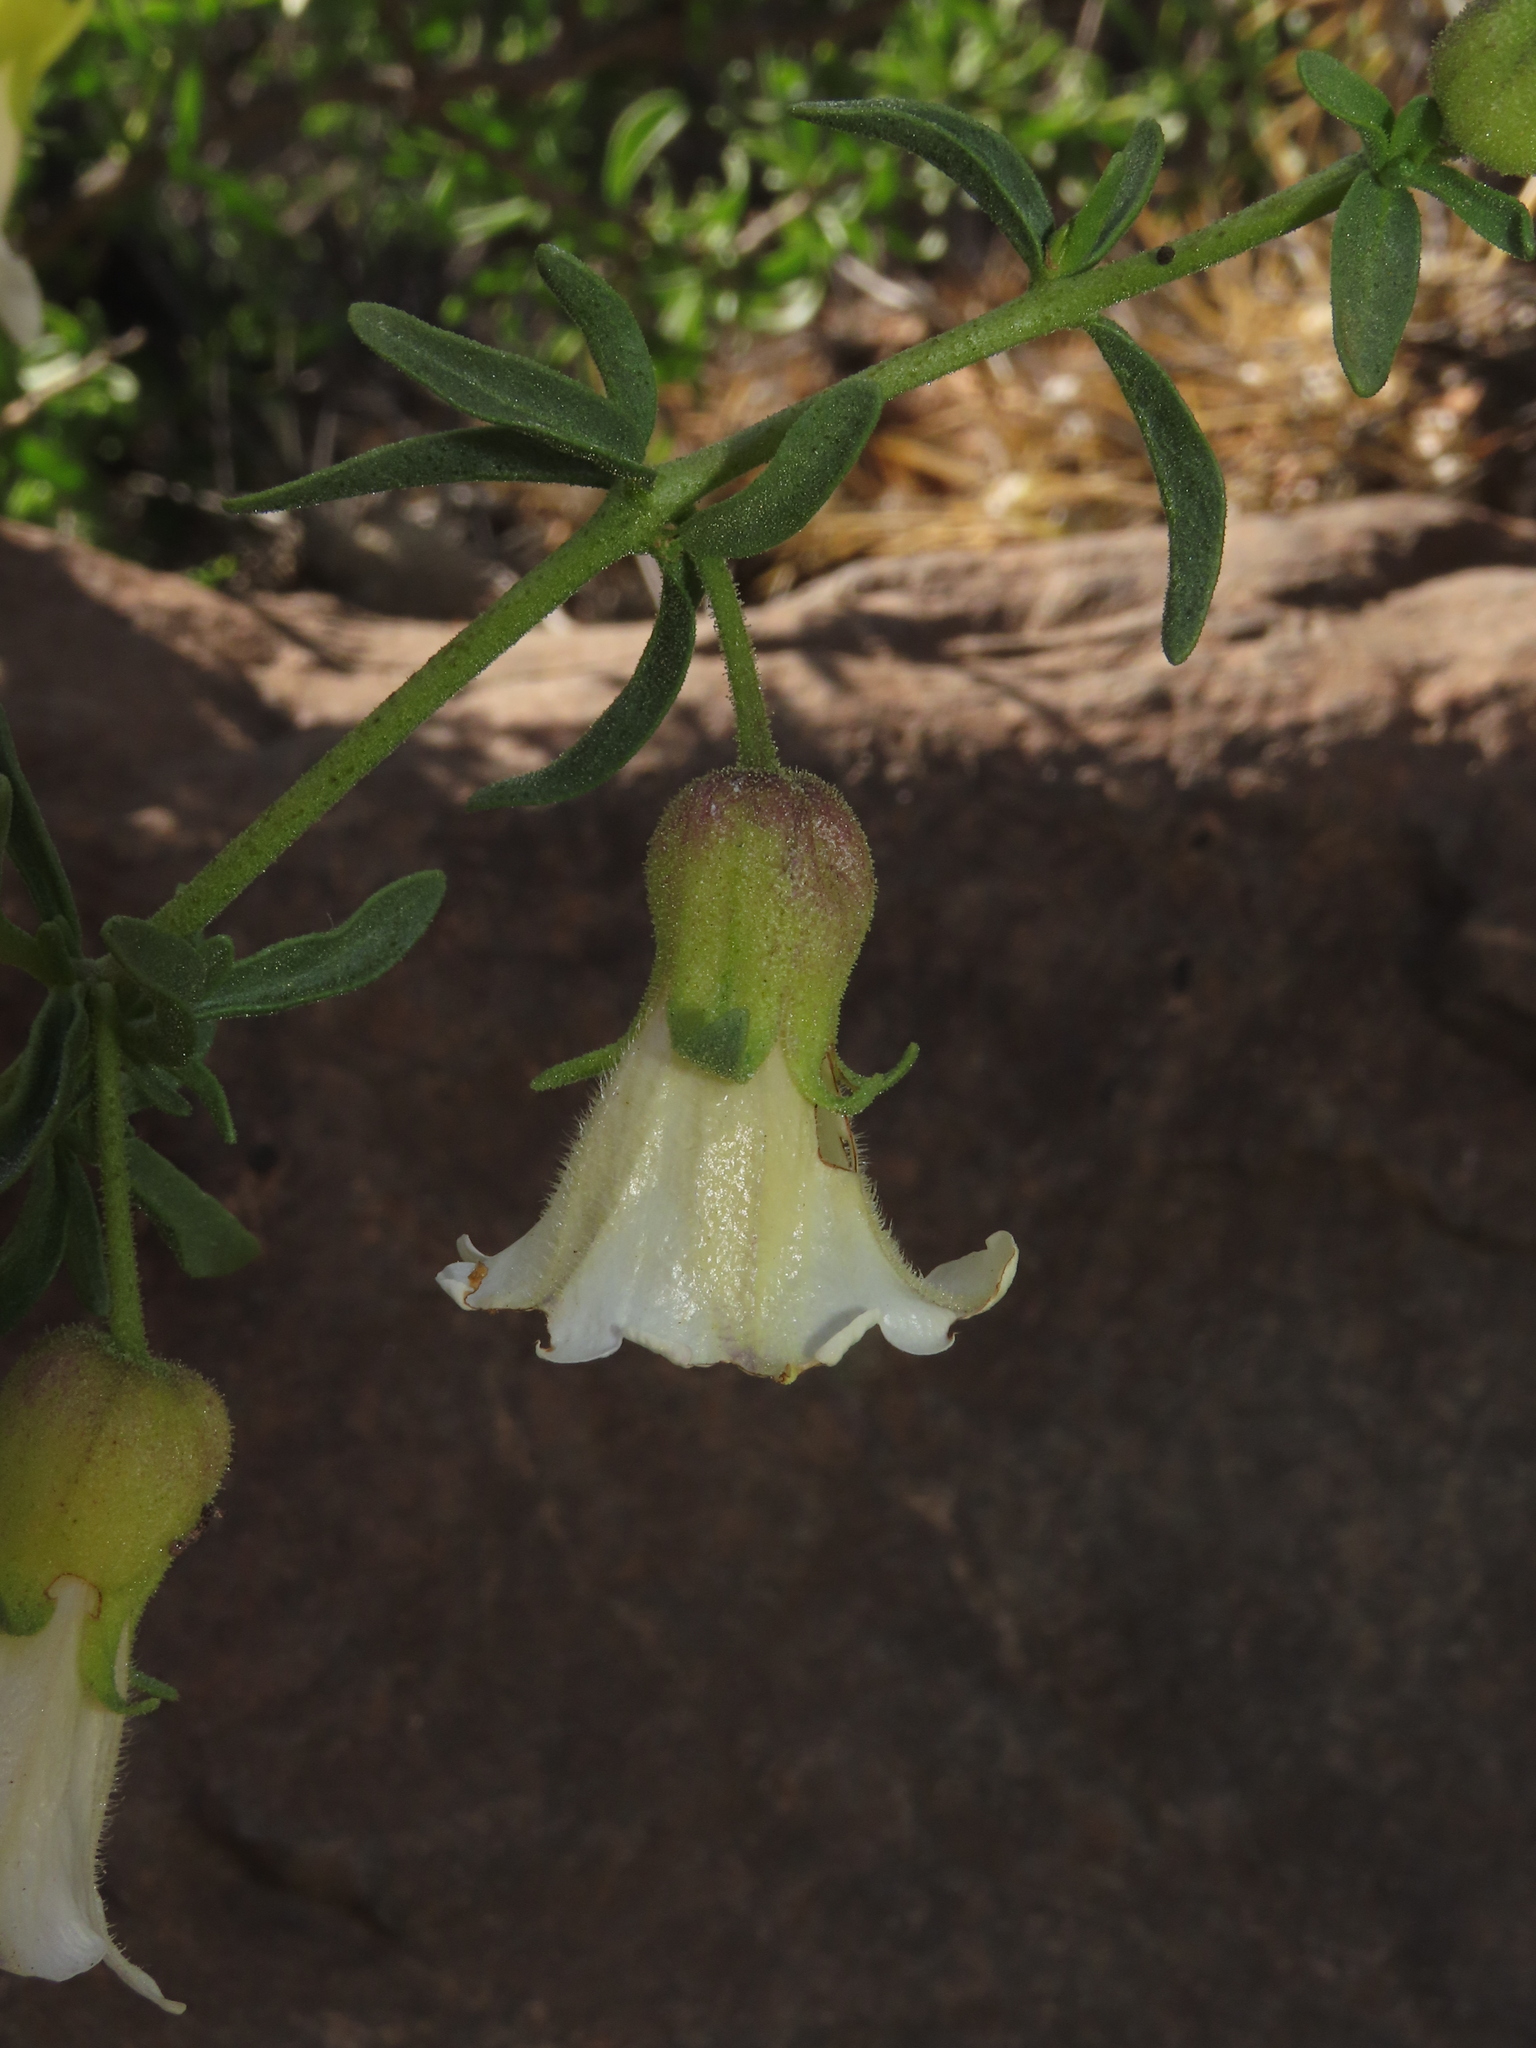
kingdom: Plantae
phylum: Tracheophyta
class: Magnoliopsida
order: Solanales
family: Solanaceae
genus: Lycium
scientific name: Lycium bridgesii
